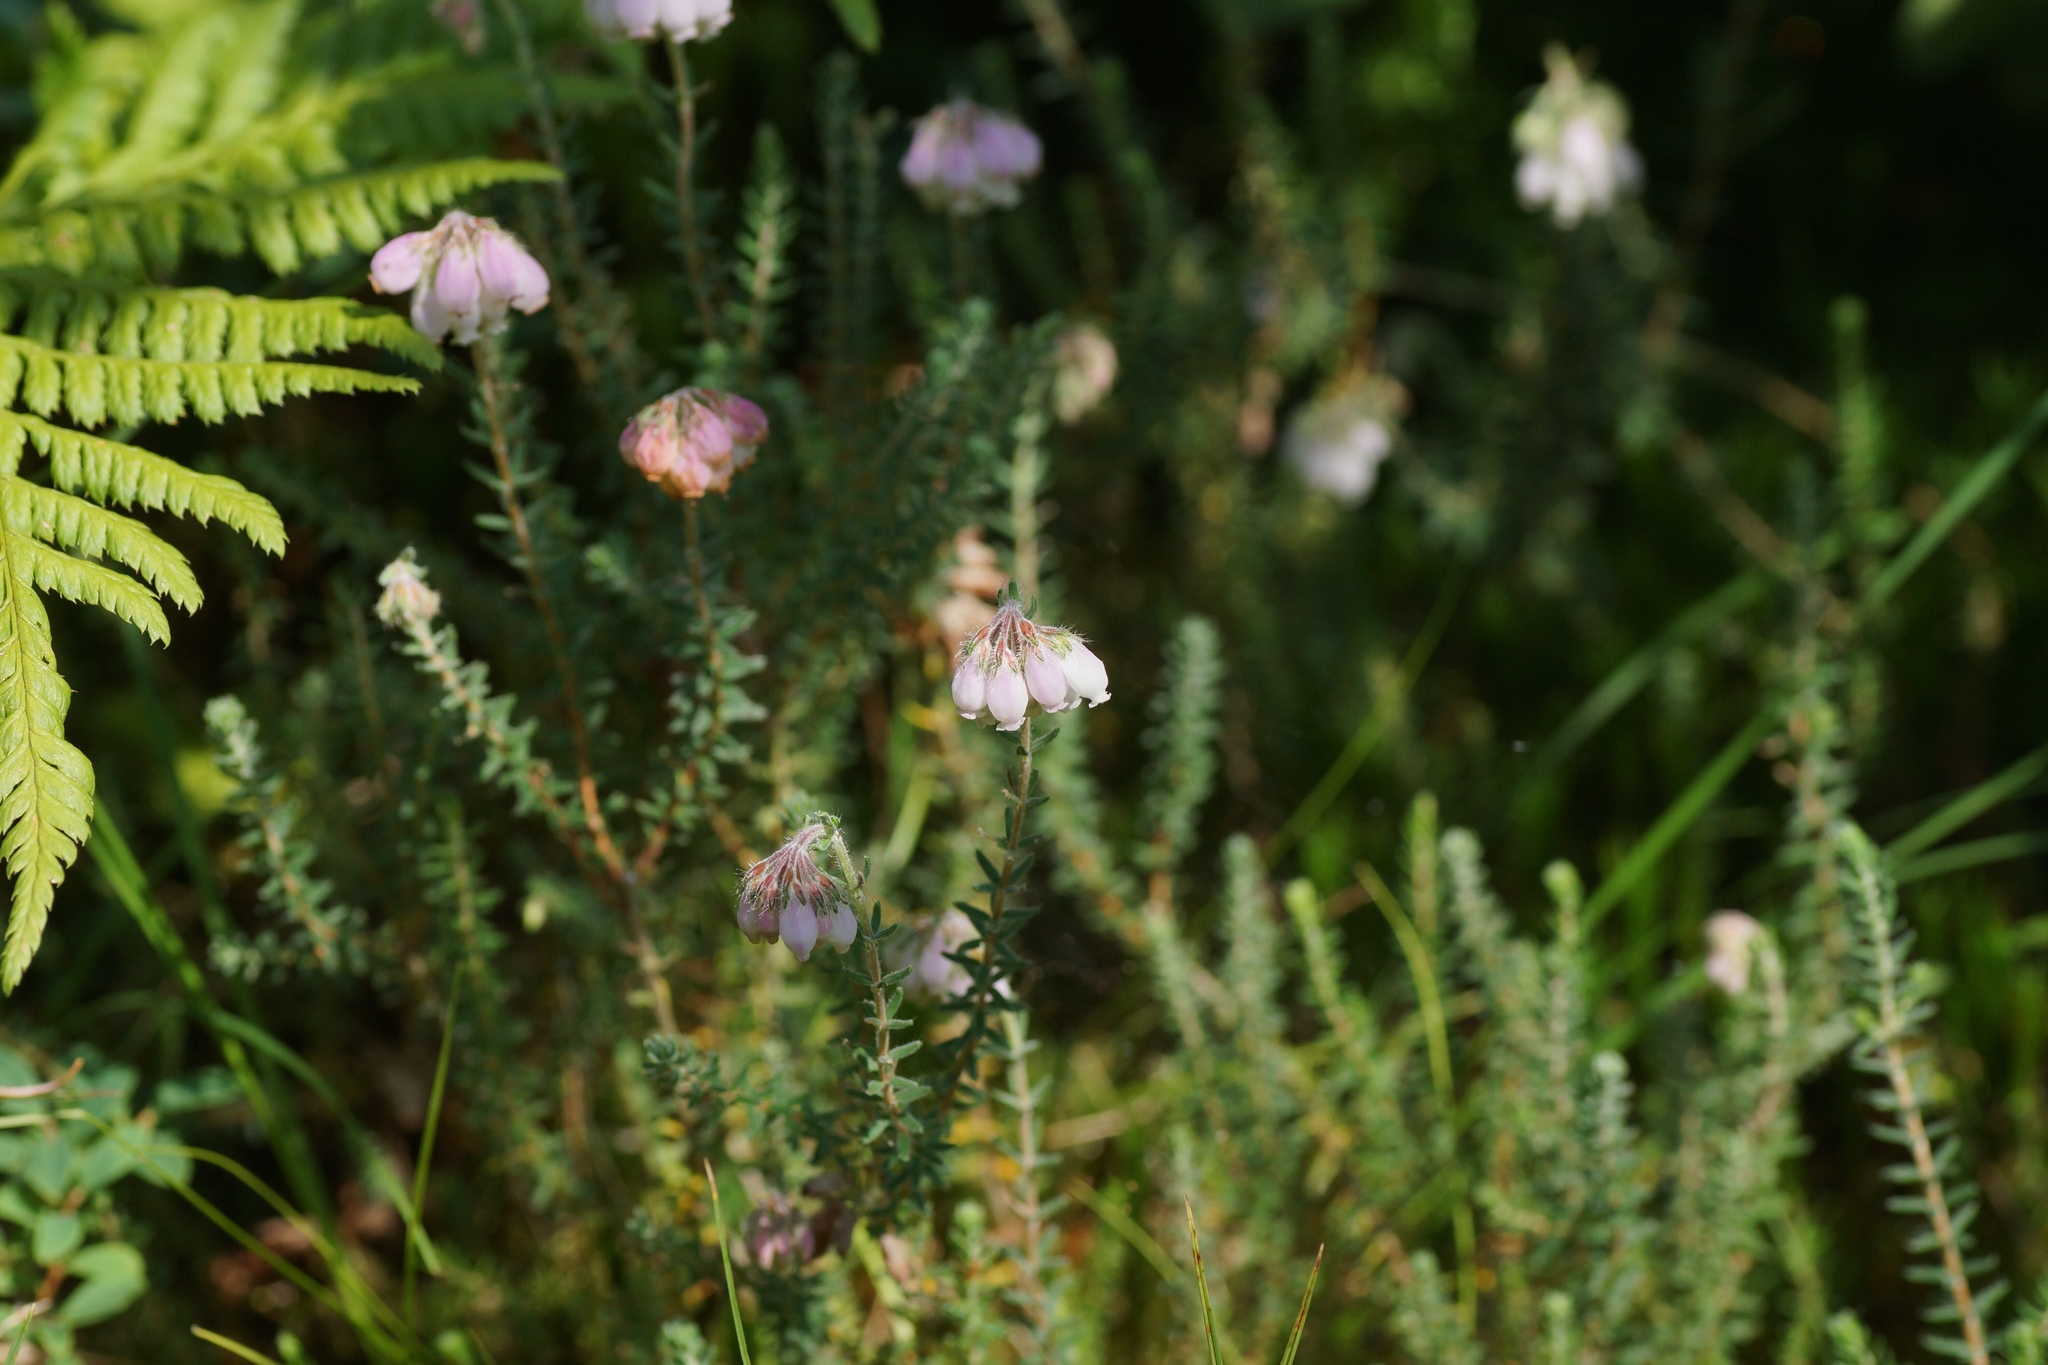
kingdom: Plantae
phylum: Tracheophyta
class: Magnoliopsida
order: Ericales
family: Ericaceae
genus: Erica
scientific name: Erica tetralix
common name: Cross-leaved heath
